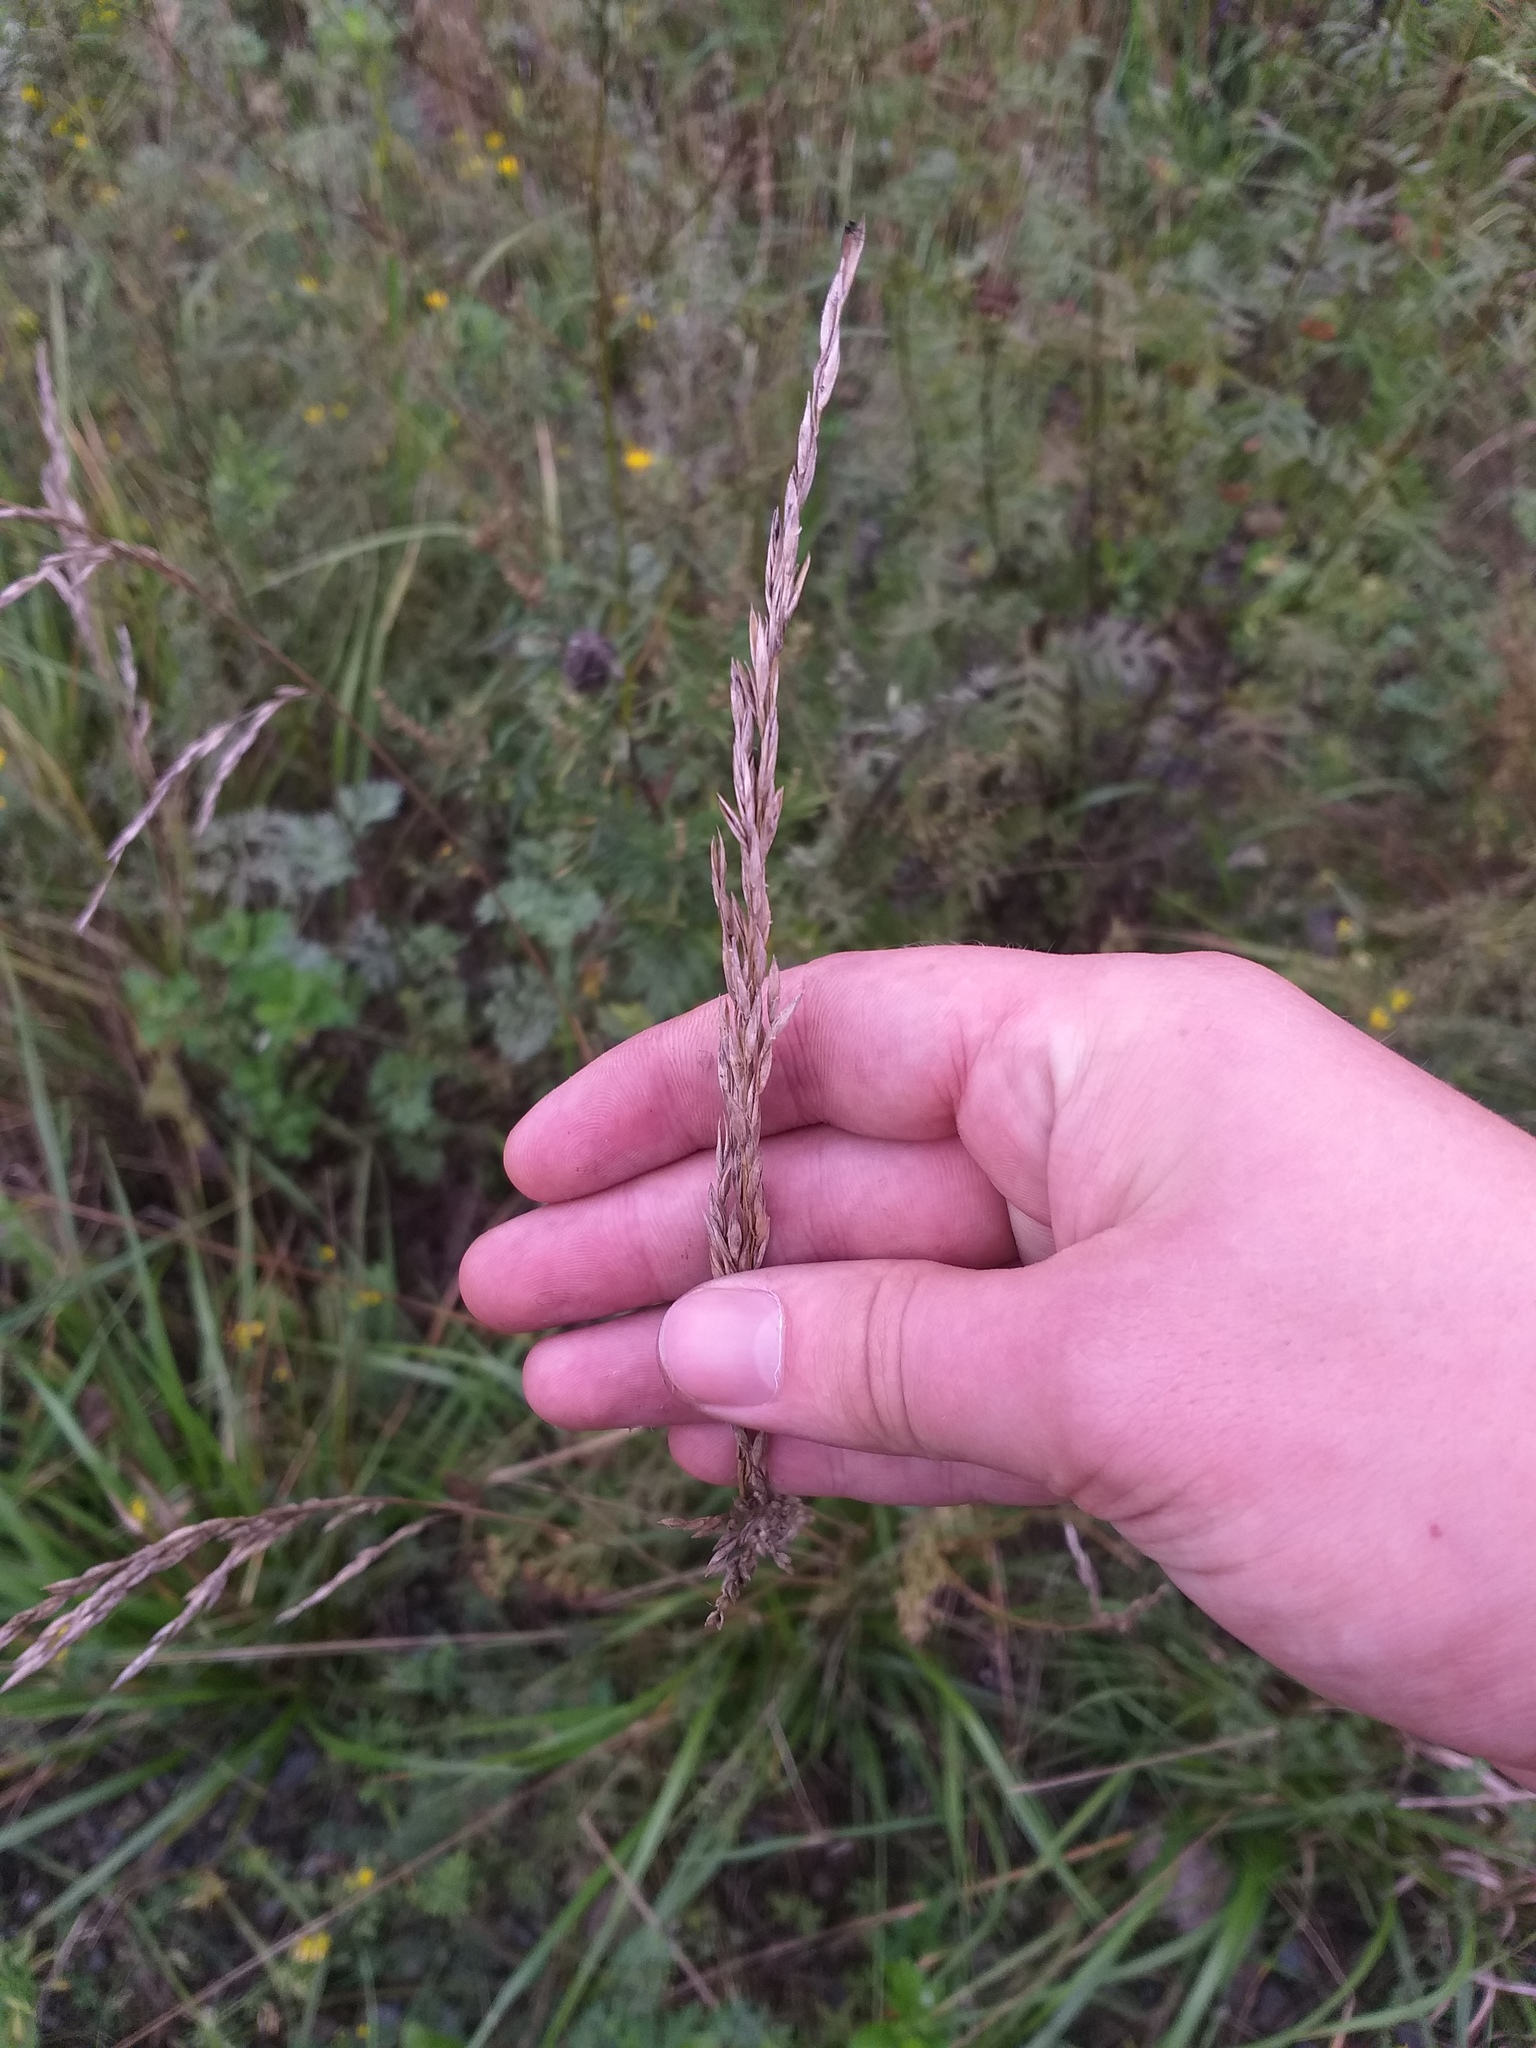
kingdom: Plantae
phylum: Tracheophyta
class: Liliopsida
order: Poales
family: Poaceae
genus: Lolium
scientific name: Lolium arundinaceum
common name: Reed fescue
